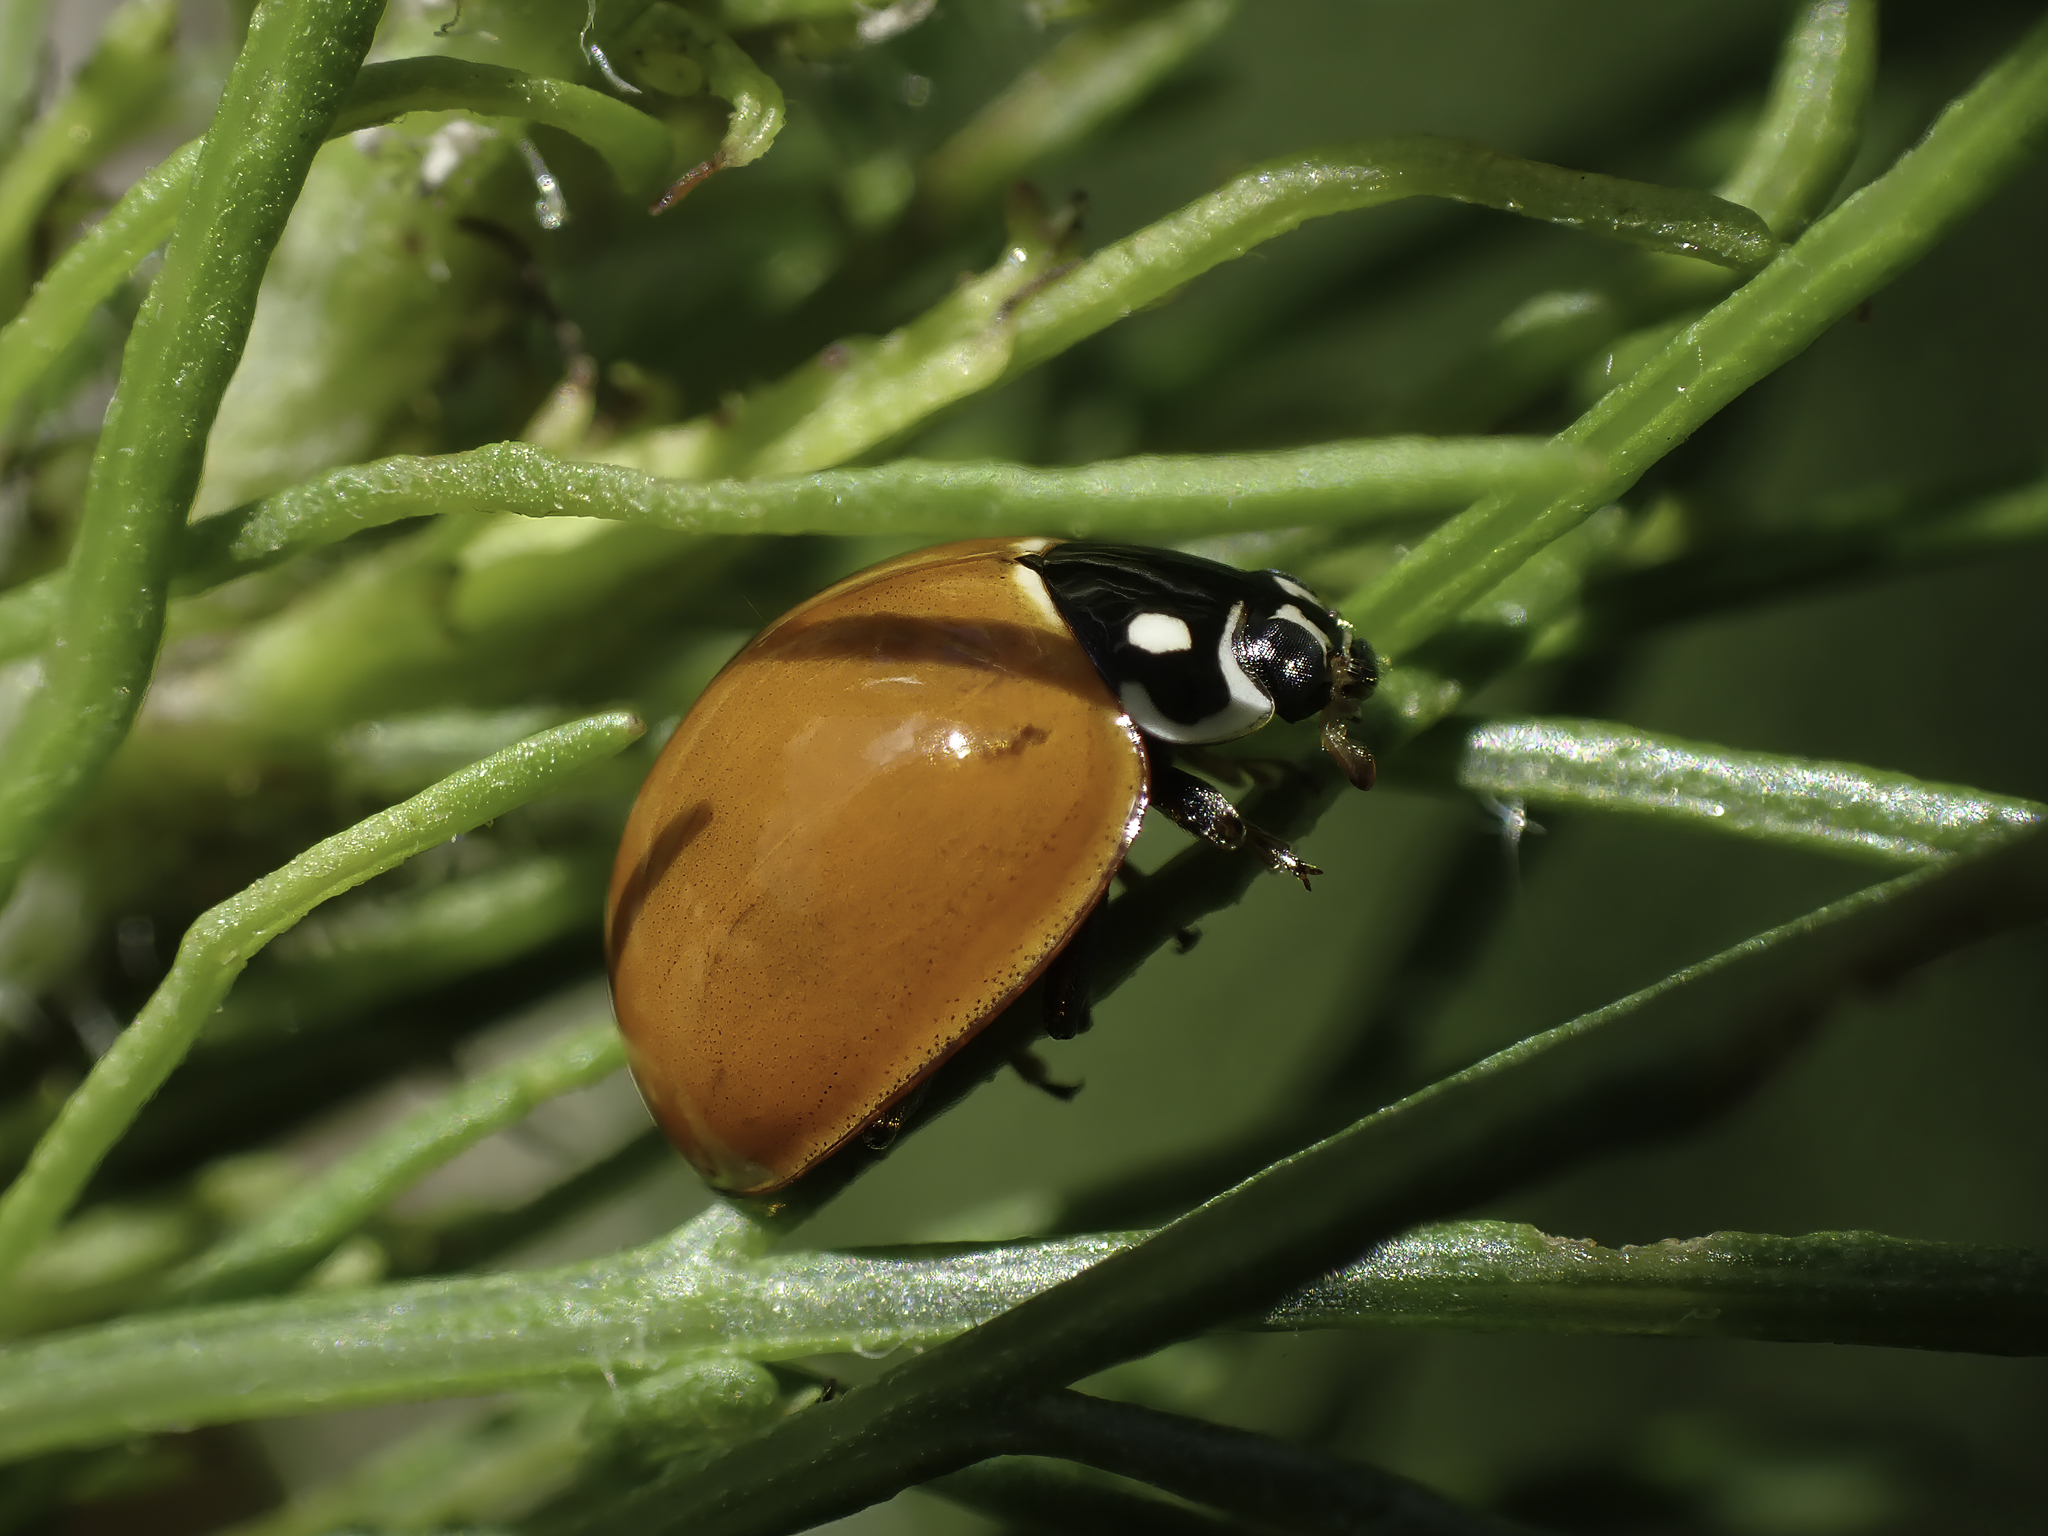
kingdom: Animalia
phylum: Arthropoda
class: Insecta
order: Coleoptera
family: Coccinellidae
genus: Cycloneda
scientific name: Cycloneda sanguinea
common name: Ladybird beetle
